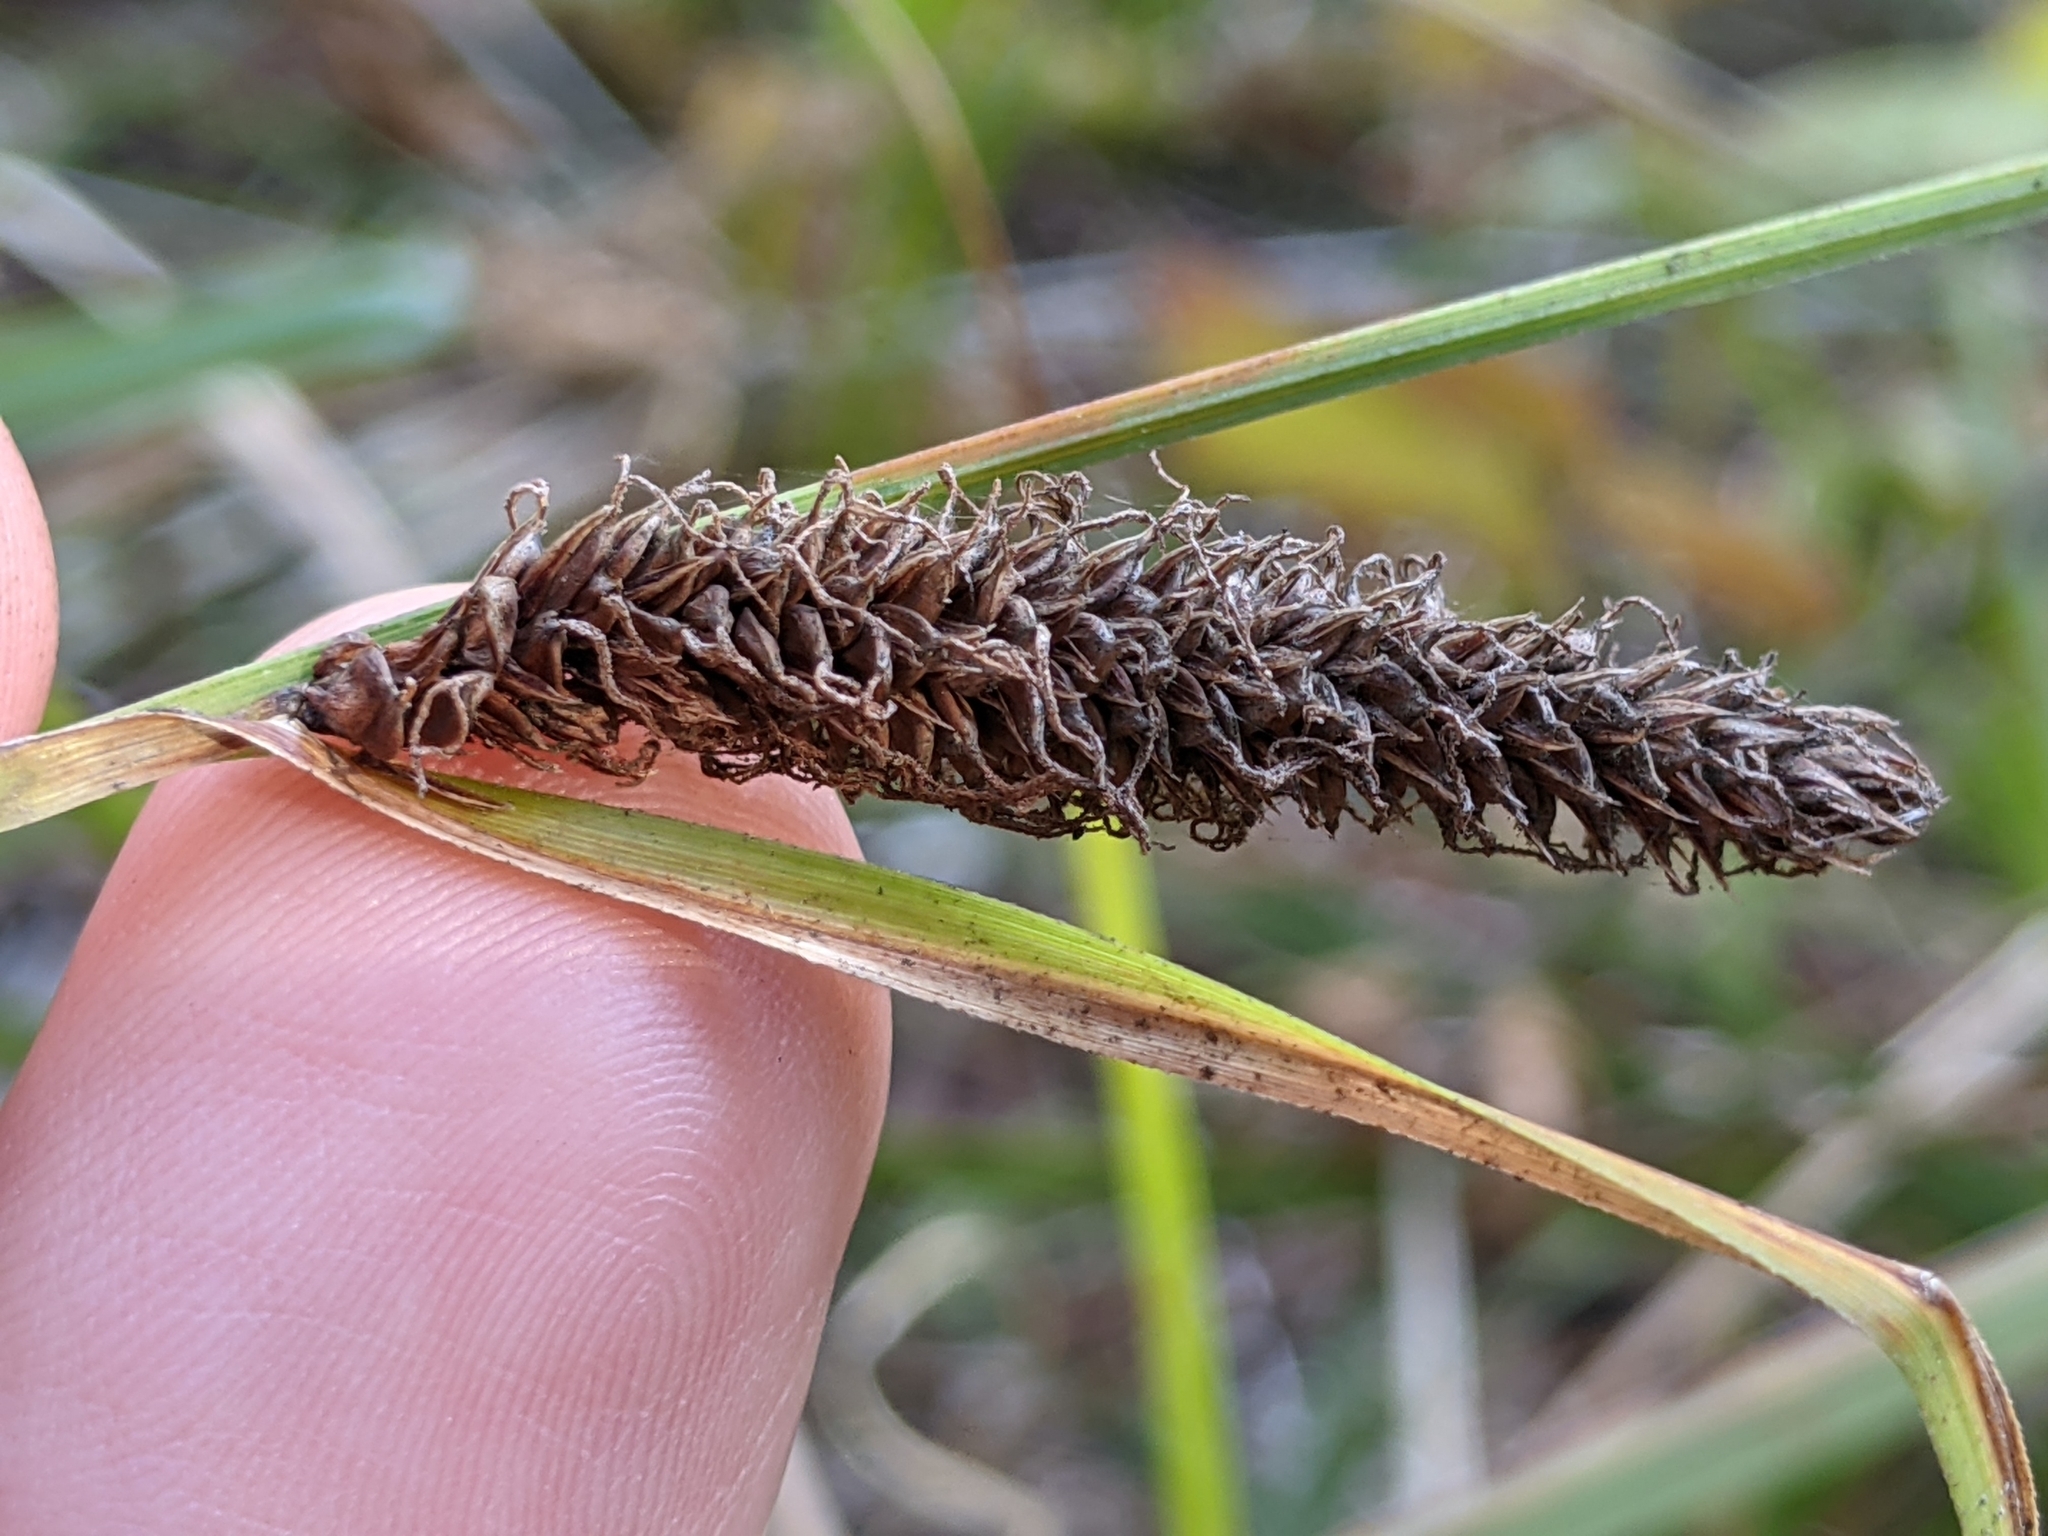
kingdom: Plantae
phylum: Tracheophyta
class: Liliopsida
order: Poales
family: Cyperaceae
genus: Carex
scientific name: Carex barbarae
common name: Santa barbara sedge
